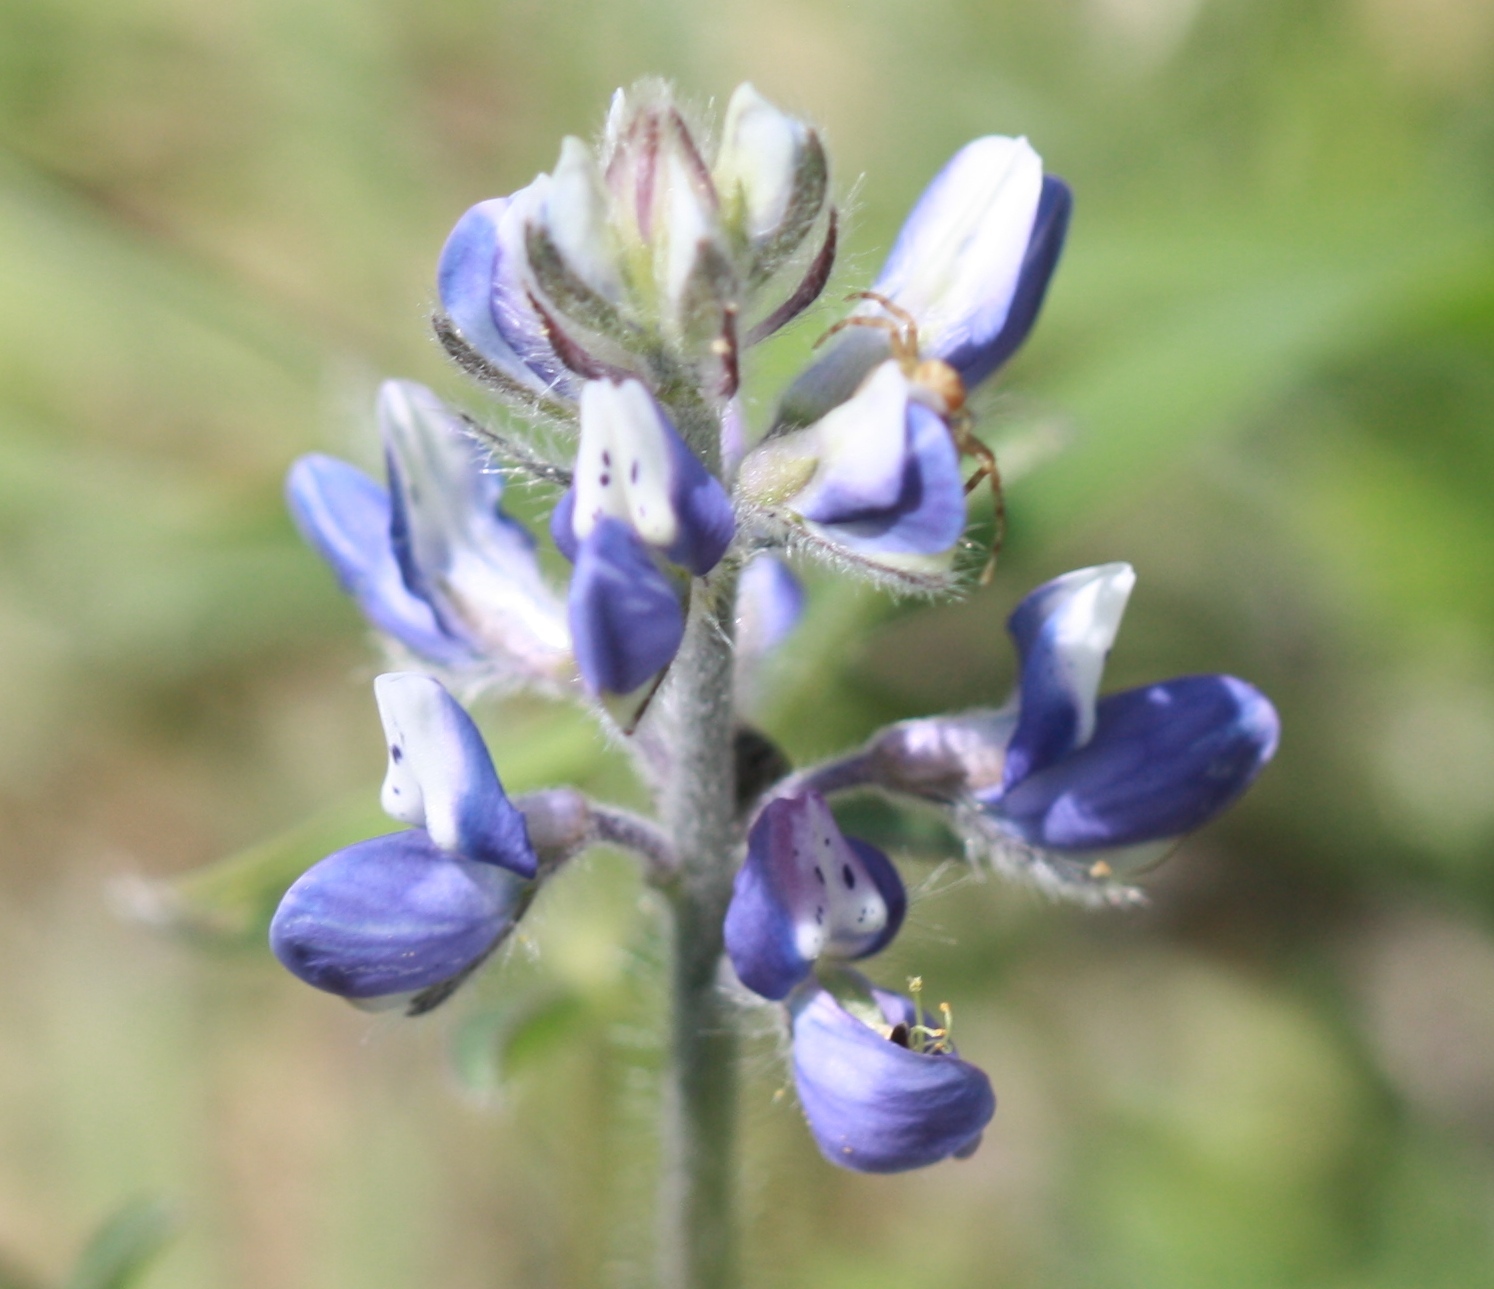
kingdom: Plantae
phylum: Tracheophyta
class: Magnoliopsida
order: Fabales
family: Fabaceae
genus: Lupinus
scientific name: Lupinus bicolor
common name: Miniature lupine
